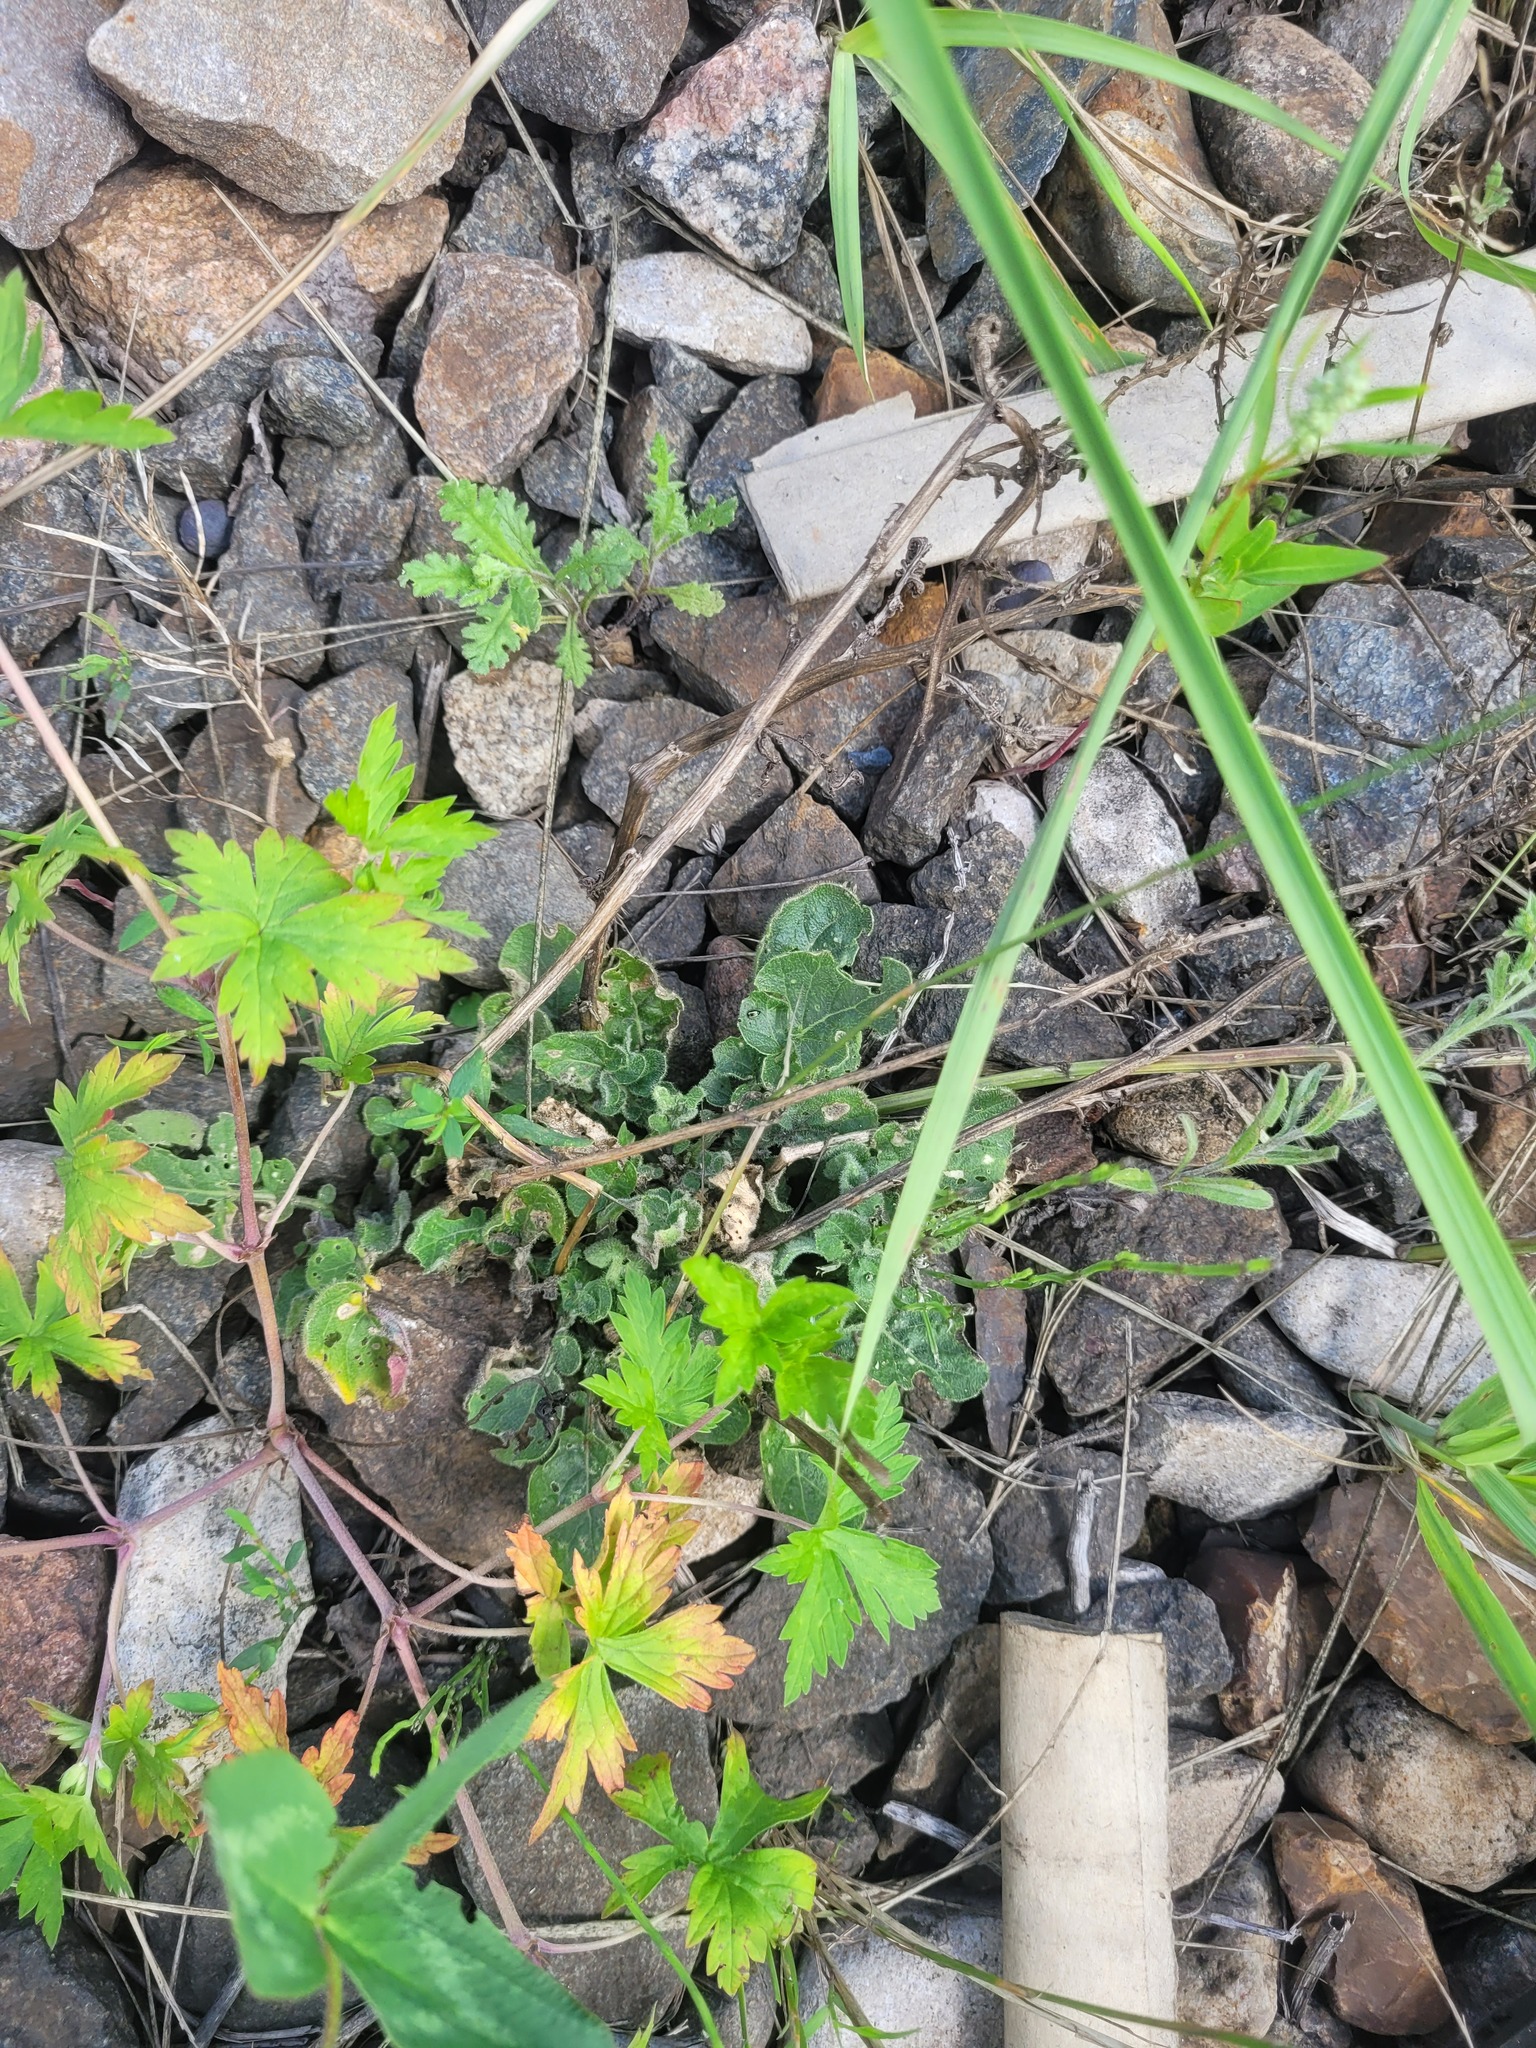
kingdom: Plantae
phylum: Tracheophyta
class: Magnoliopsida
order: Brassicales
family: Brassicaceae
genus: Barbarea
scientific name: Barbarea vulgaris
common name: Cressy-greens
